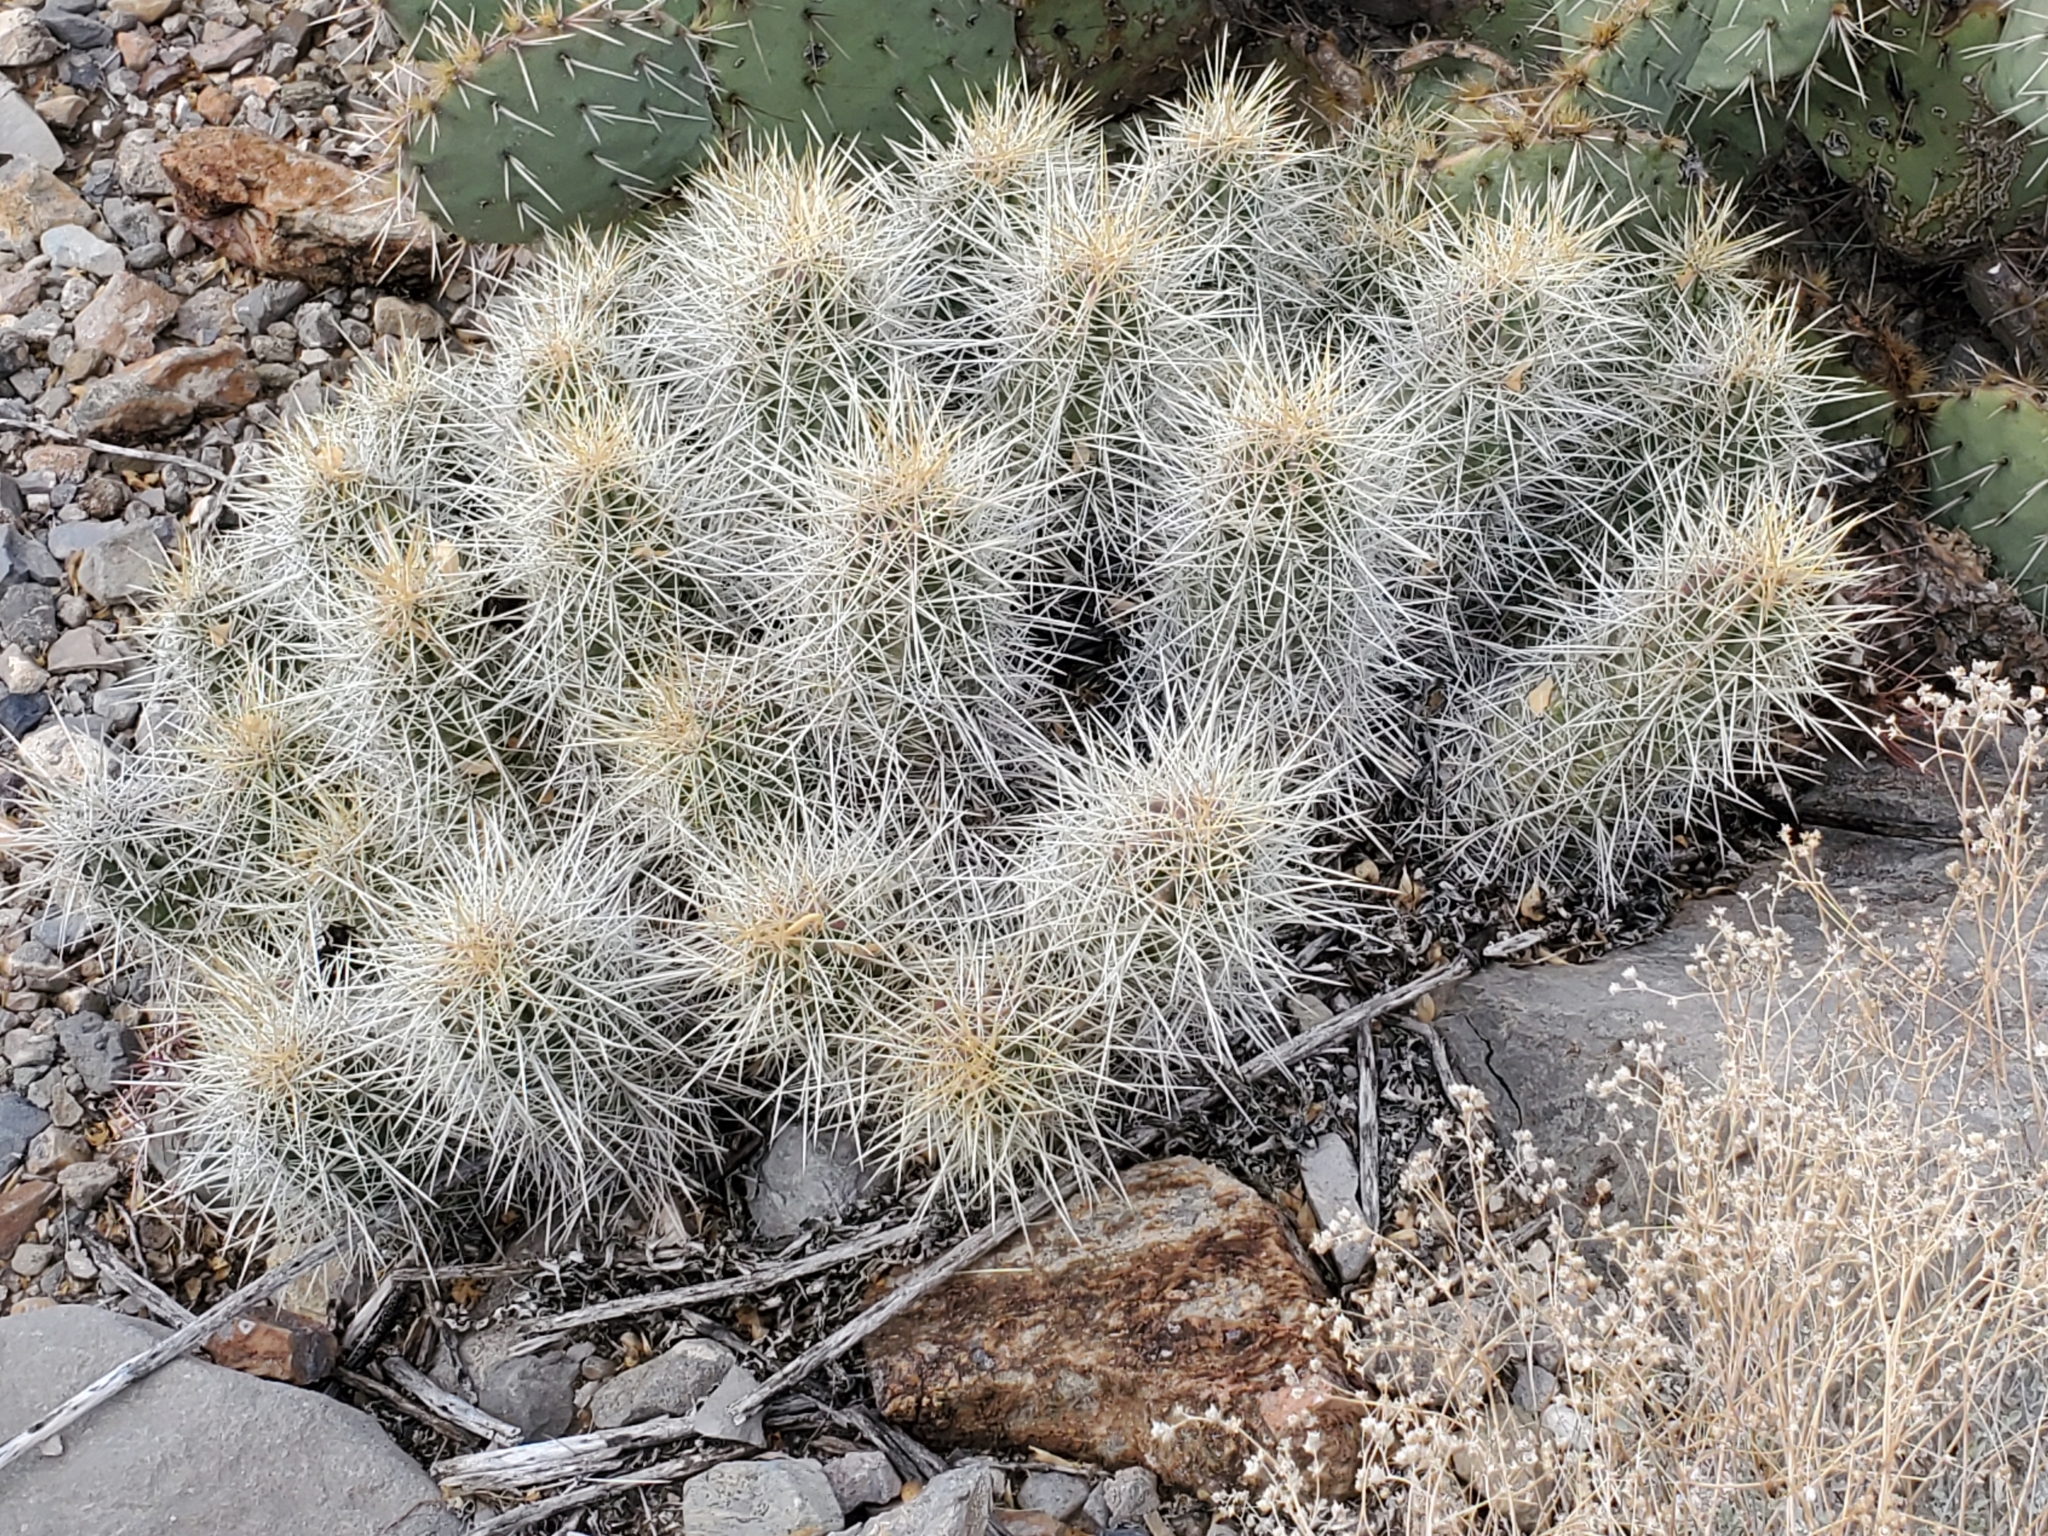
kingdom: Plantae
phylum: Tracheophyta
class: Magnoliopsida
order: Caryophyllales
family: Cactaceae
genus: Echinocereus
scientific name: Echinocereus stramineus
